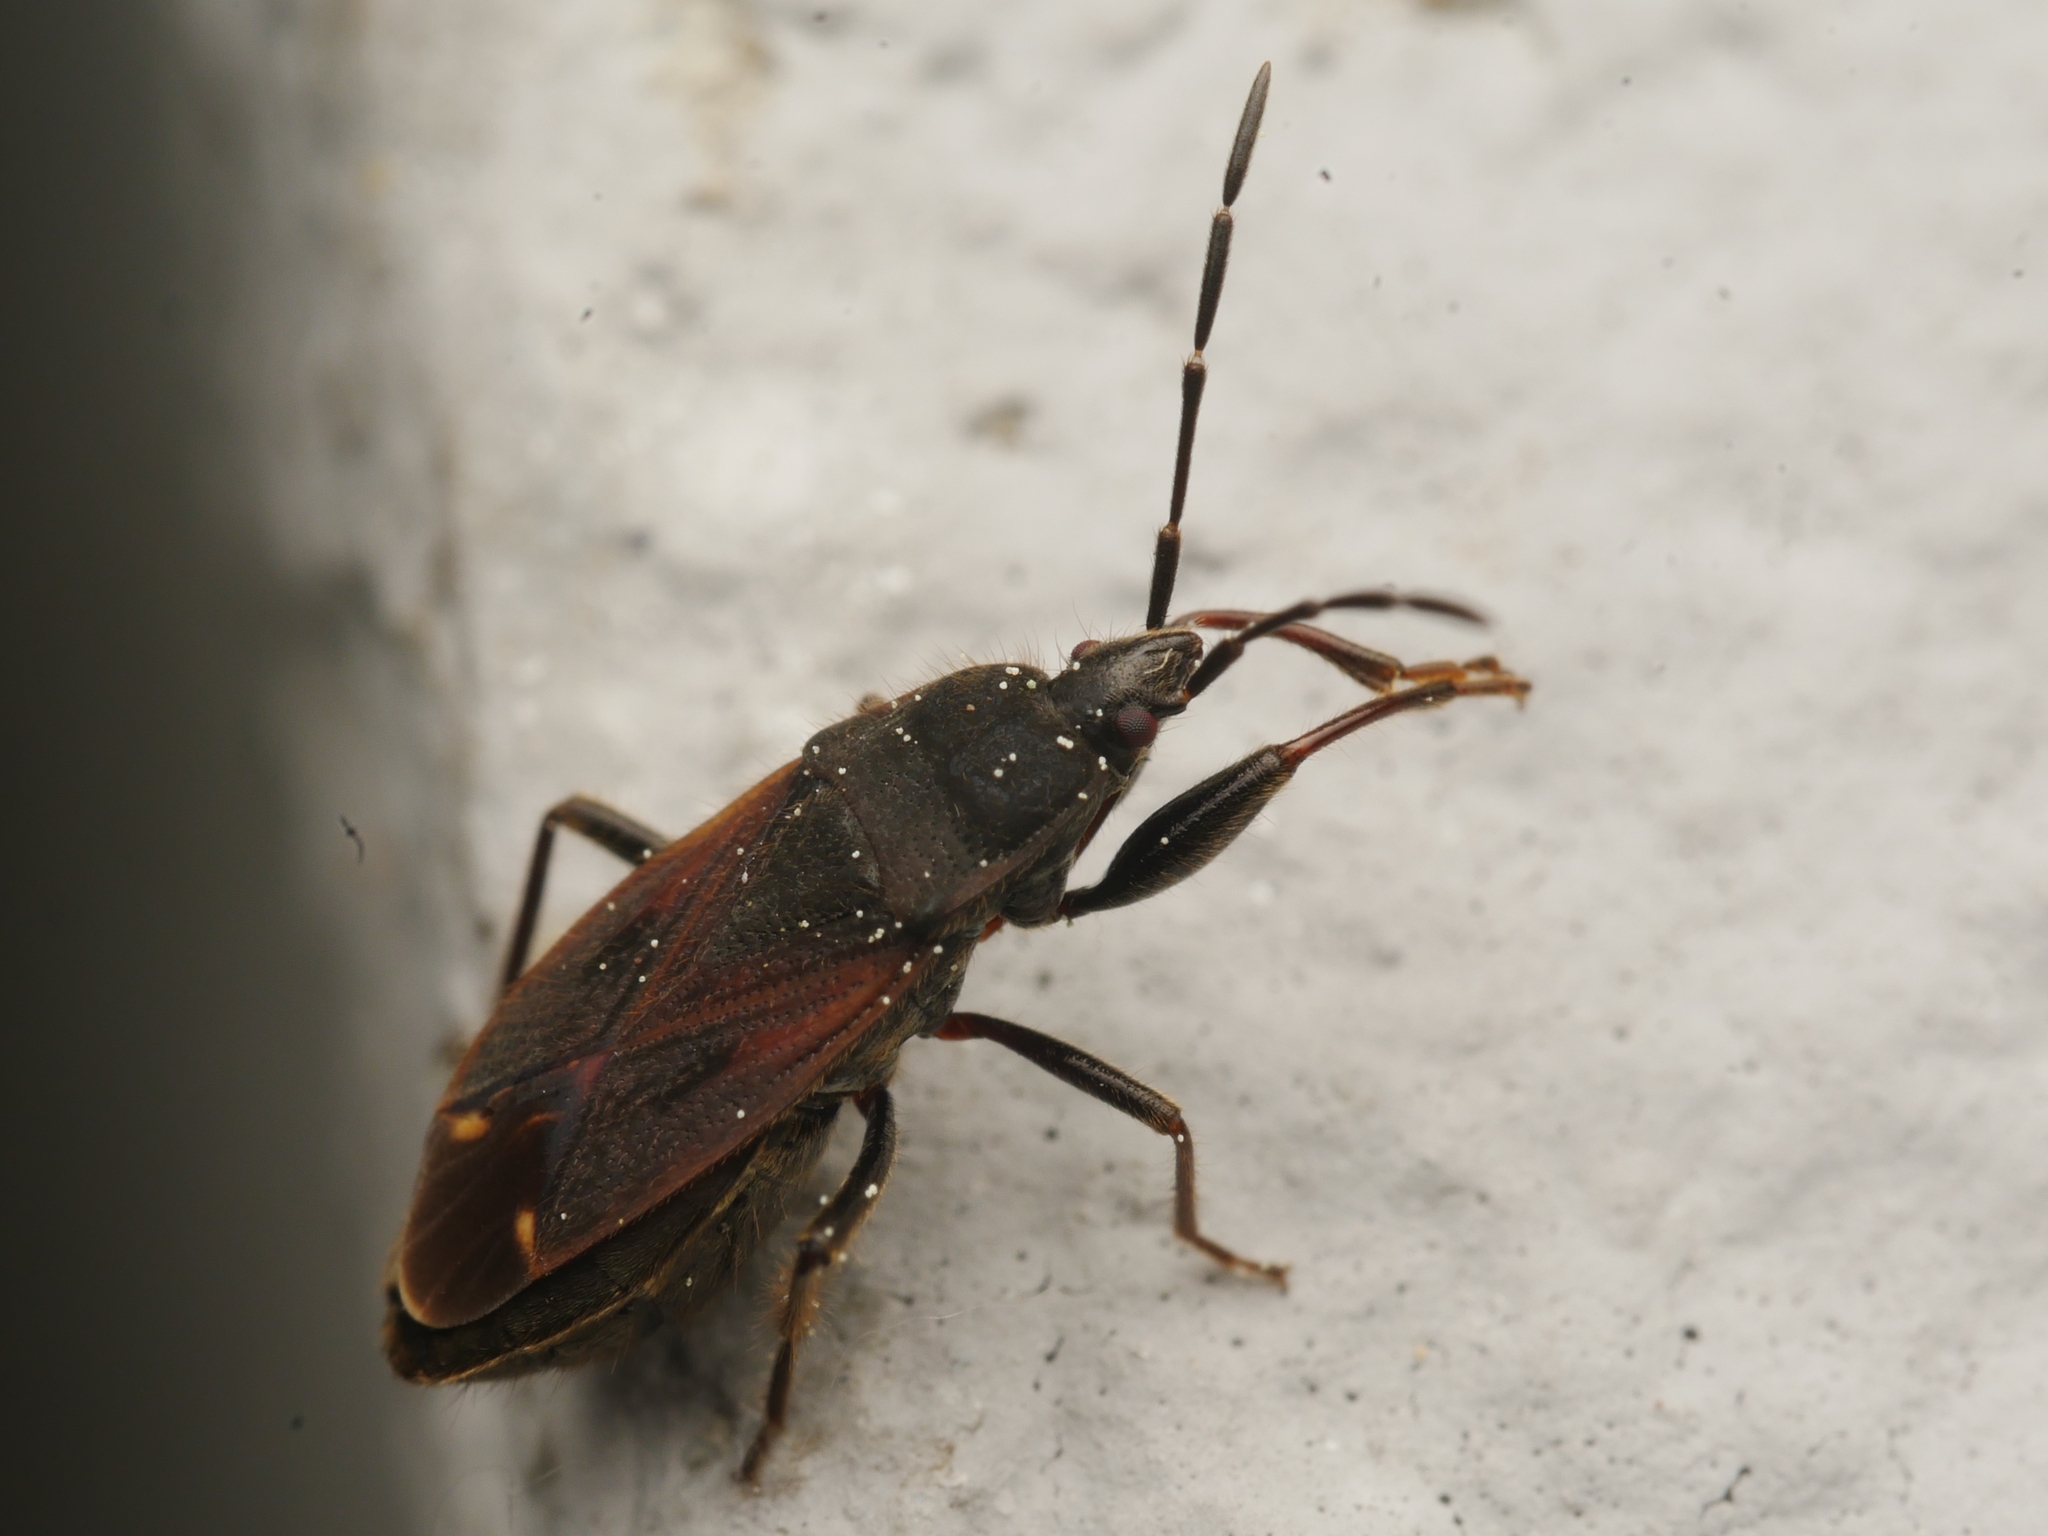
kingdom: Animalia
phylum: Arthropoda
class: Insecta
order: Hemiptera
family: Rhyparochromidae
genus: Eremocoris
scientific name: Eremocoris plebejus
